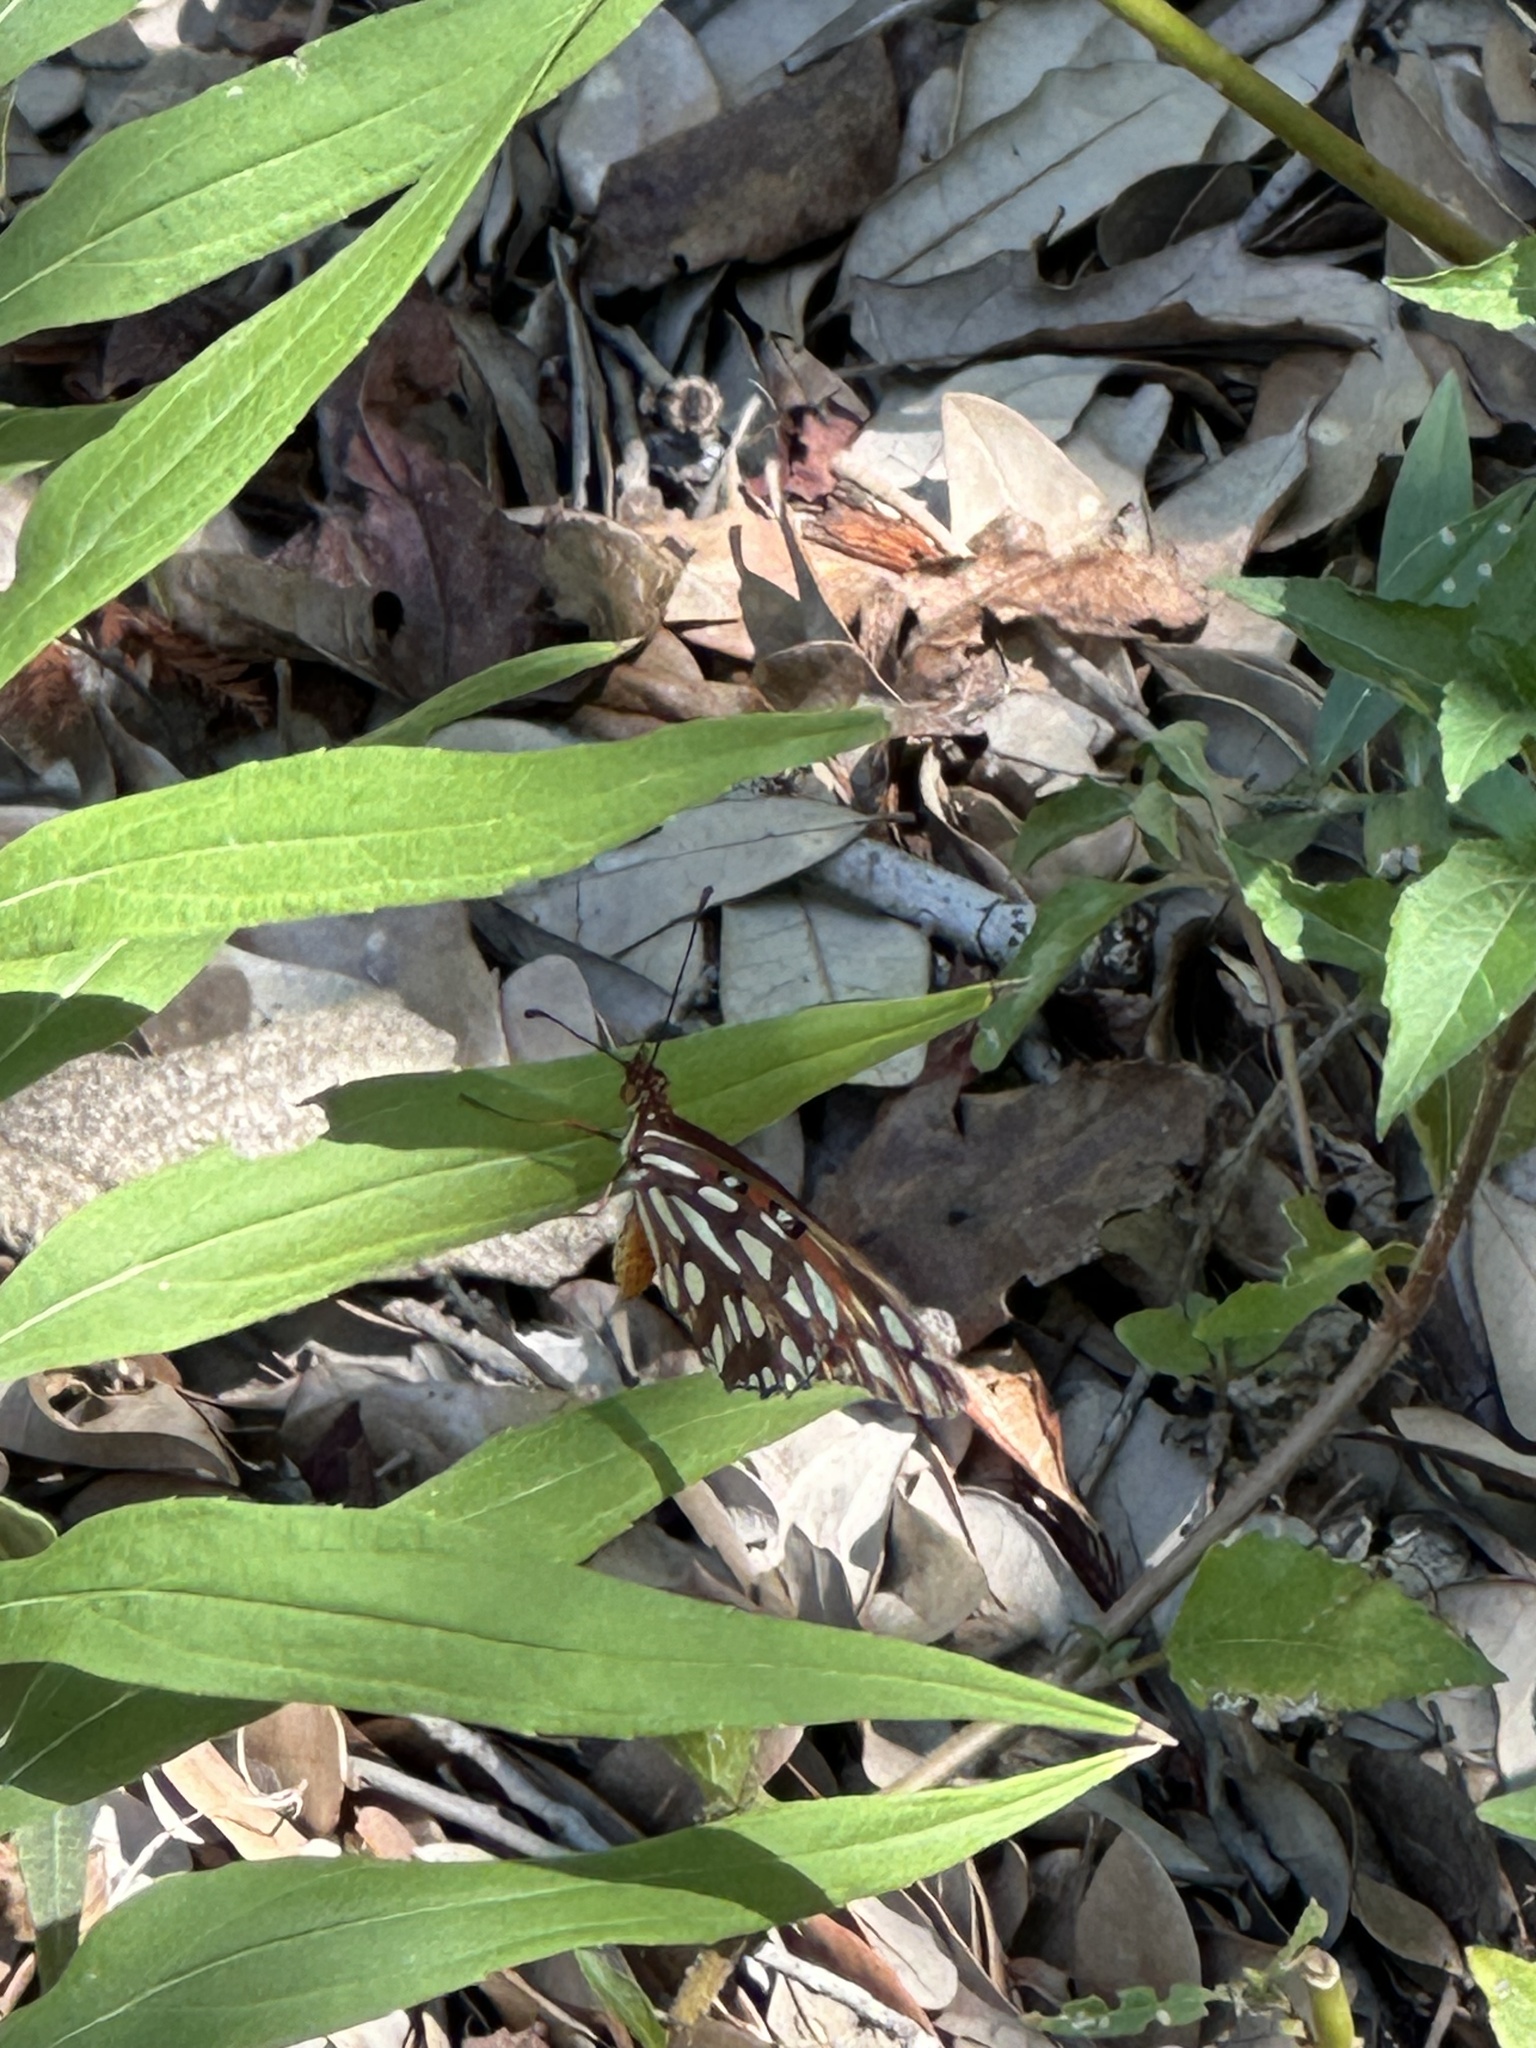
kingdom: Animalia
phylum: Arthropoda
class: Insecta
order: Lepidoptera
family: Nymphalidae
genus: Dione
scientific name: Dione vanillae
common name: Gulf fritillary
